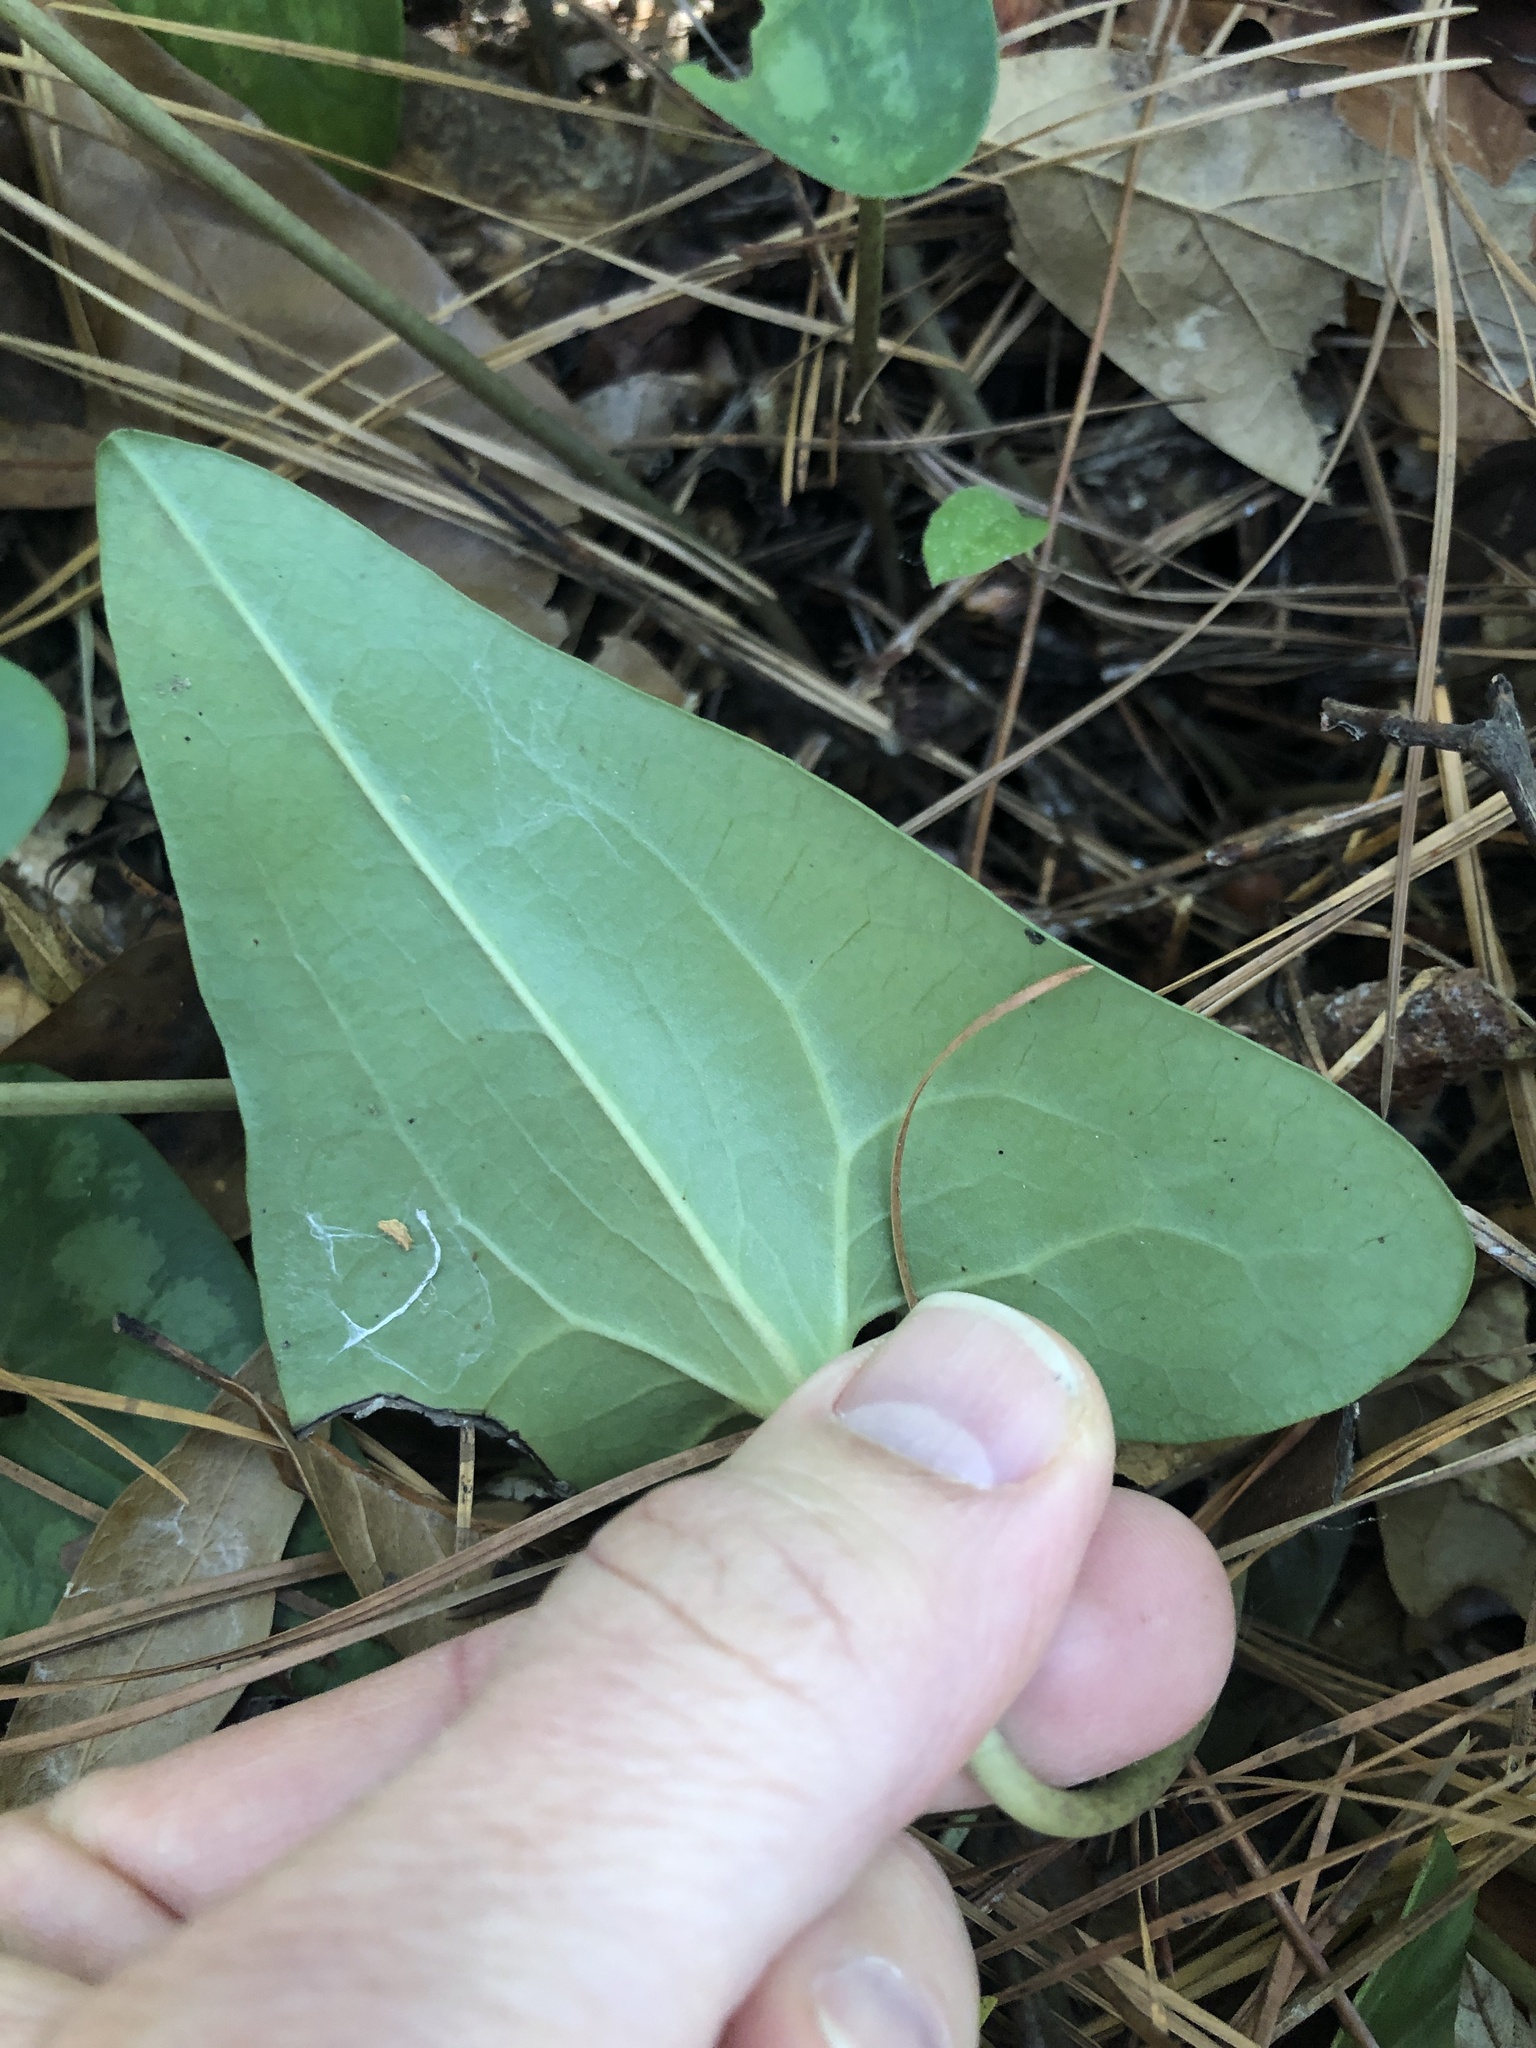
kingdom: Plantae
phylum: Tracheophyta
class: Magnoliopsida
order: Piperales
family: Aristolochiaceae
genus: Hexastylis
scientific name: Hexastylis arifolia
